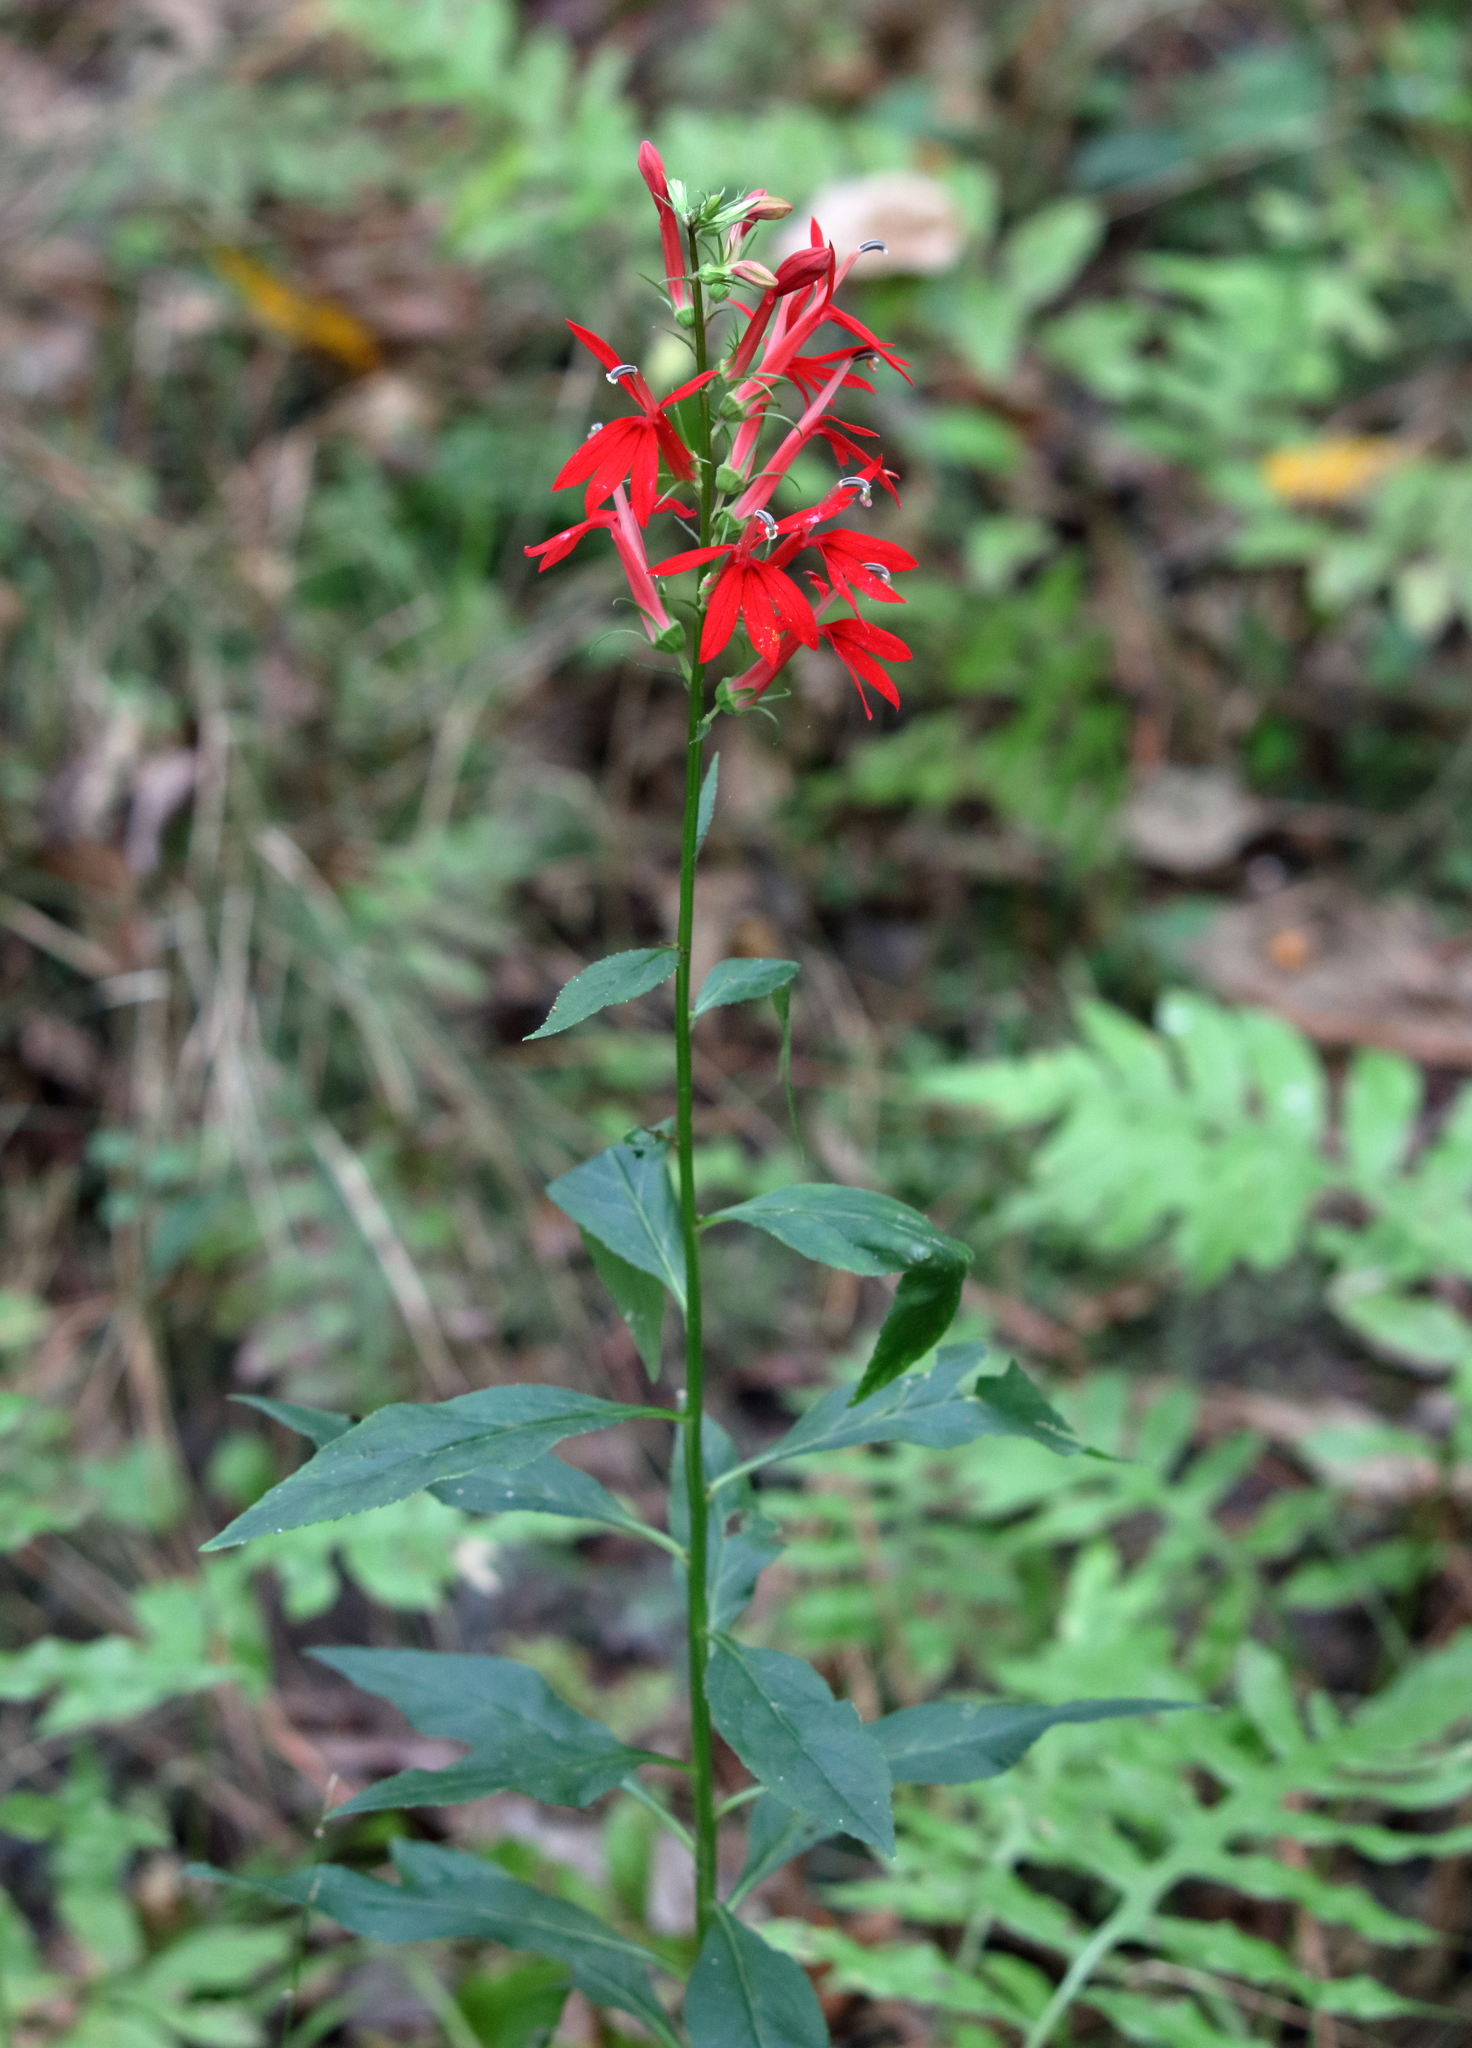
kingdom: Plantae
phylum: Tracheophyta
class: Magnoliopsida
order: Asterales
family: Campanulaceae
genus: Lobelia
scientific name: Lobelia cardinalis
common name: Cardinal flower
